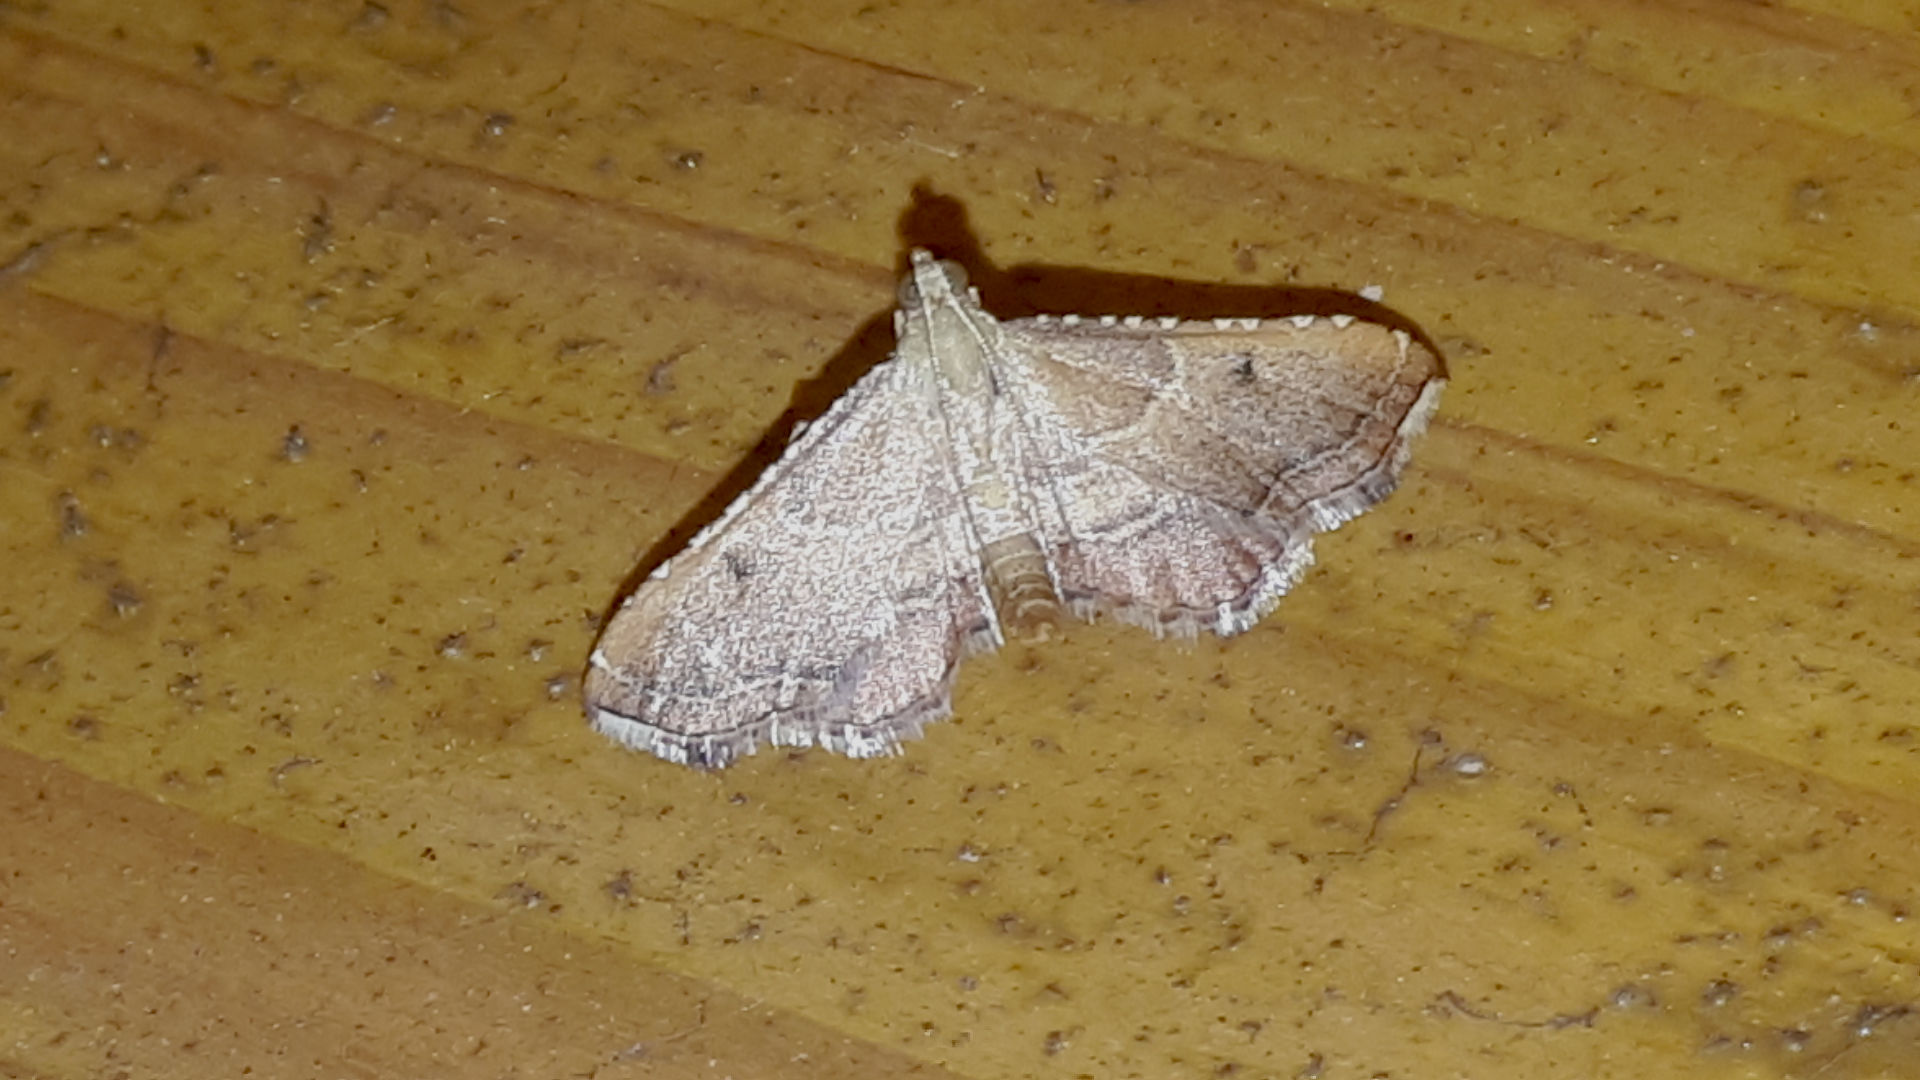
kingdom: Animalia
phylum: Arthropoda
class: Insecta
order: Lepidoptera
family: Pyralidae
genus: Endotricha
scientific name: Endotricha flammealis
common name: Rosy tabby
